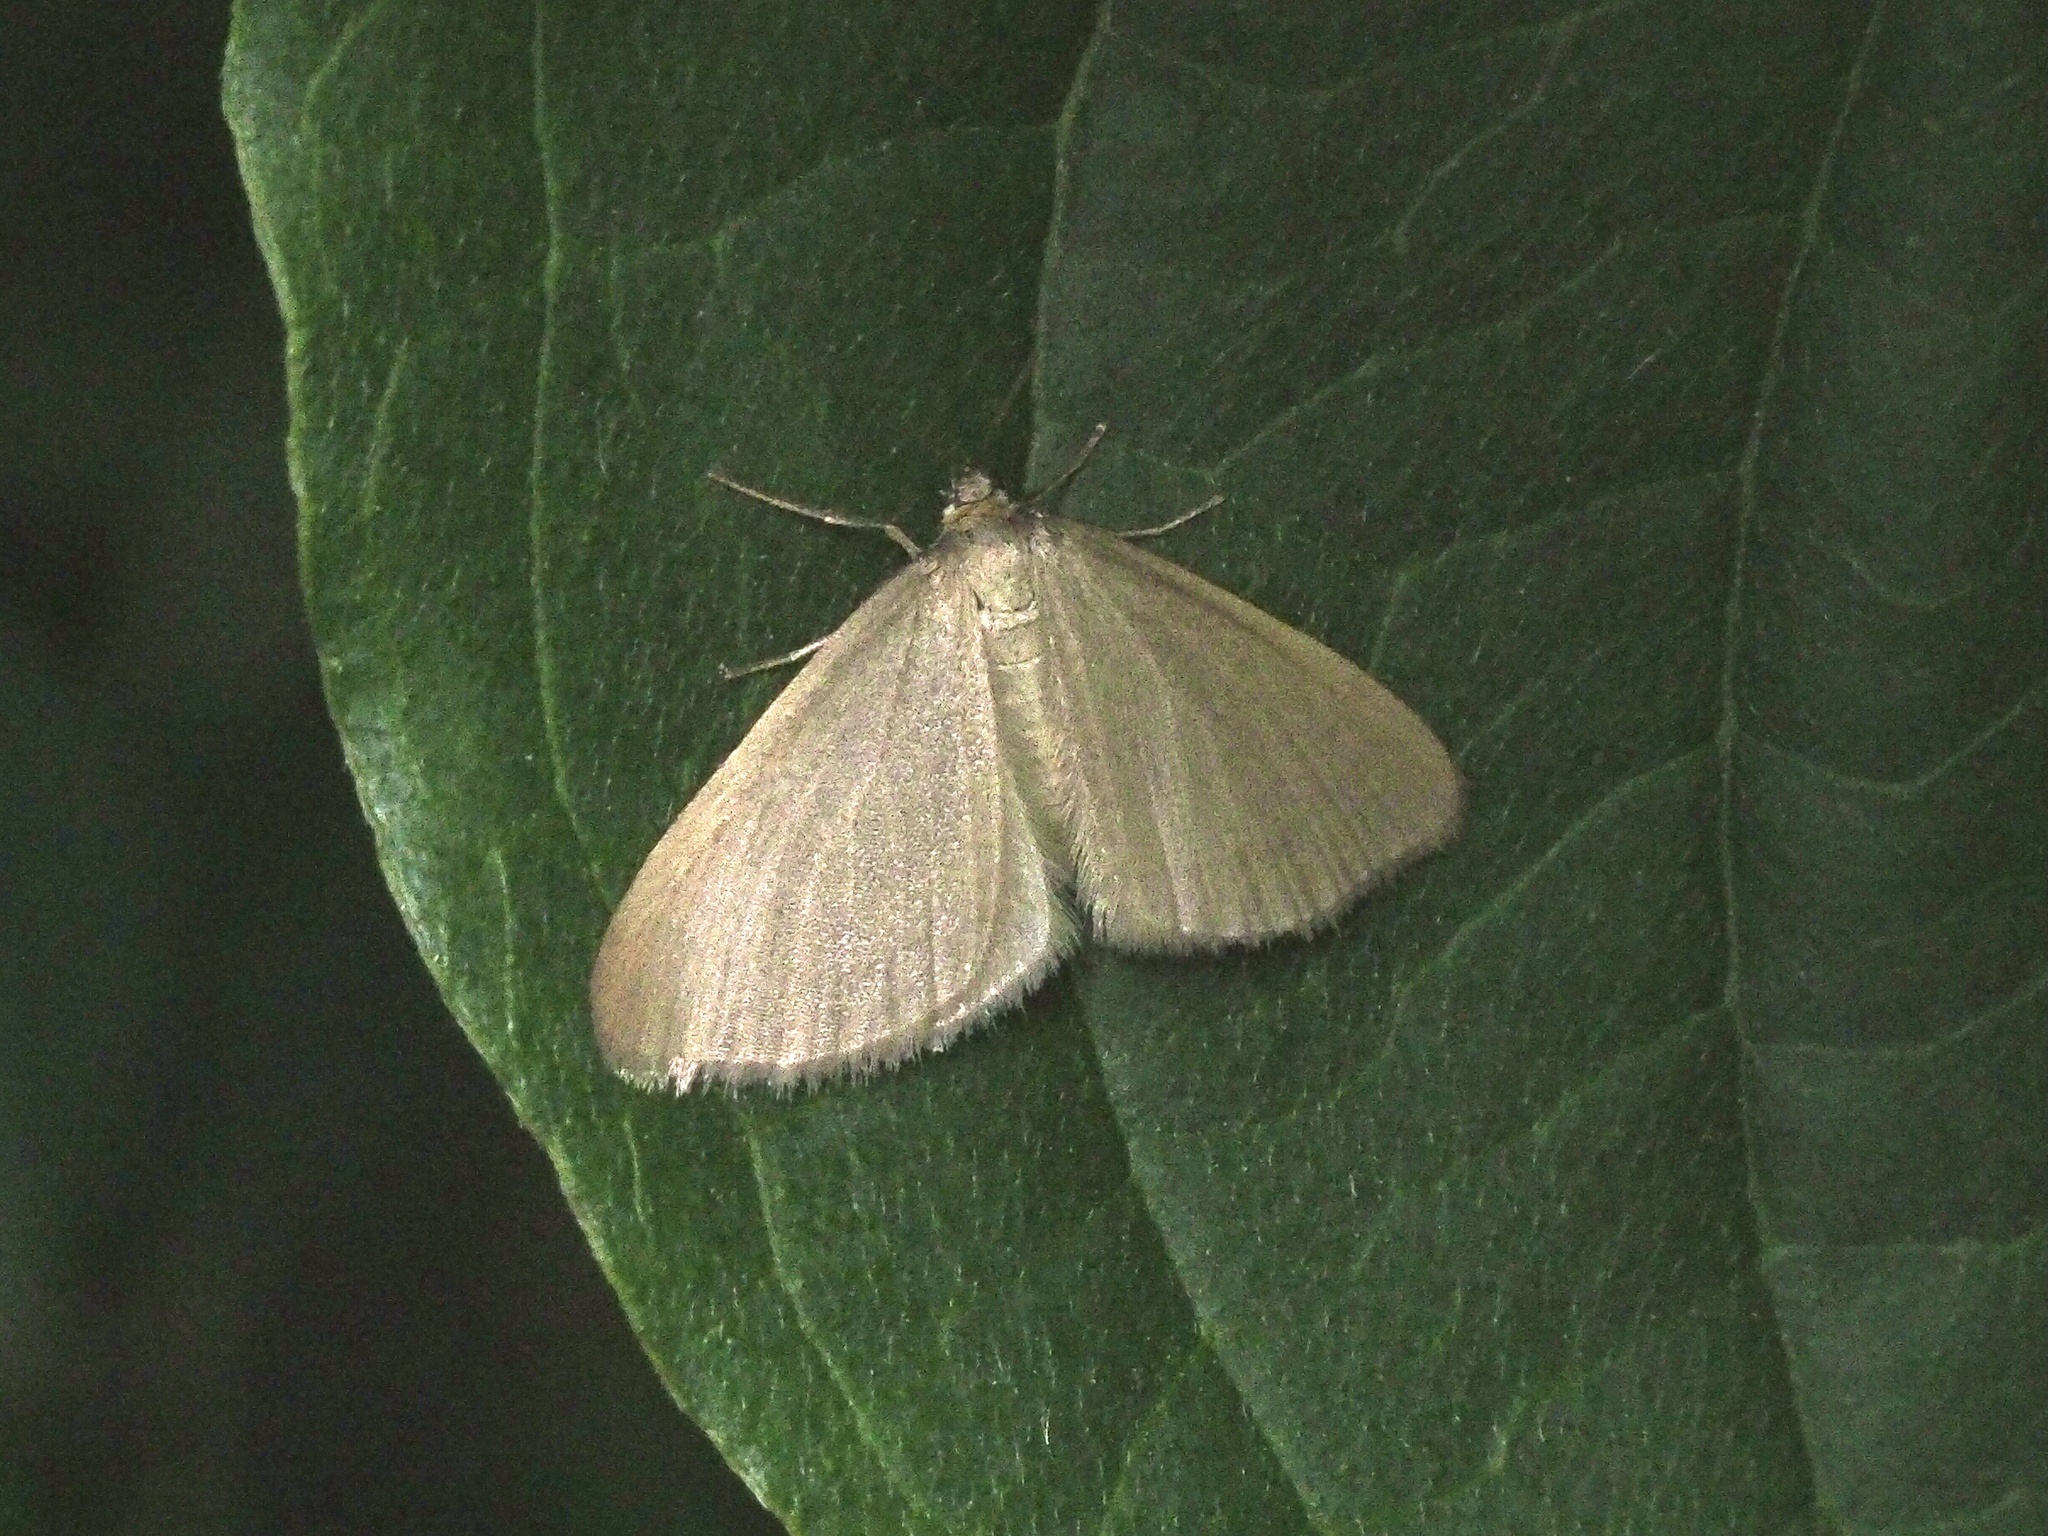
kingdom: Animalia
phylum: Arthropoda
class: Insecta
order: Lepidoptera
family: Geometridae
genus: Minoa
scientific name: Minoa murinata
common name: Drab looper
